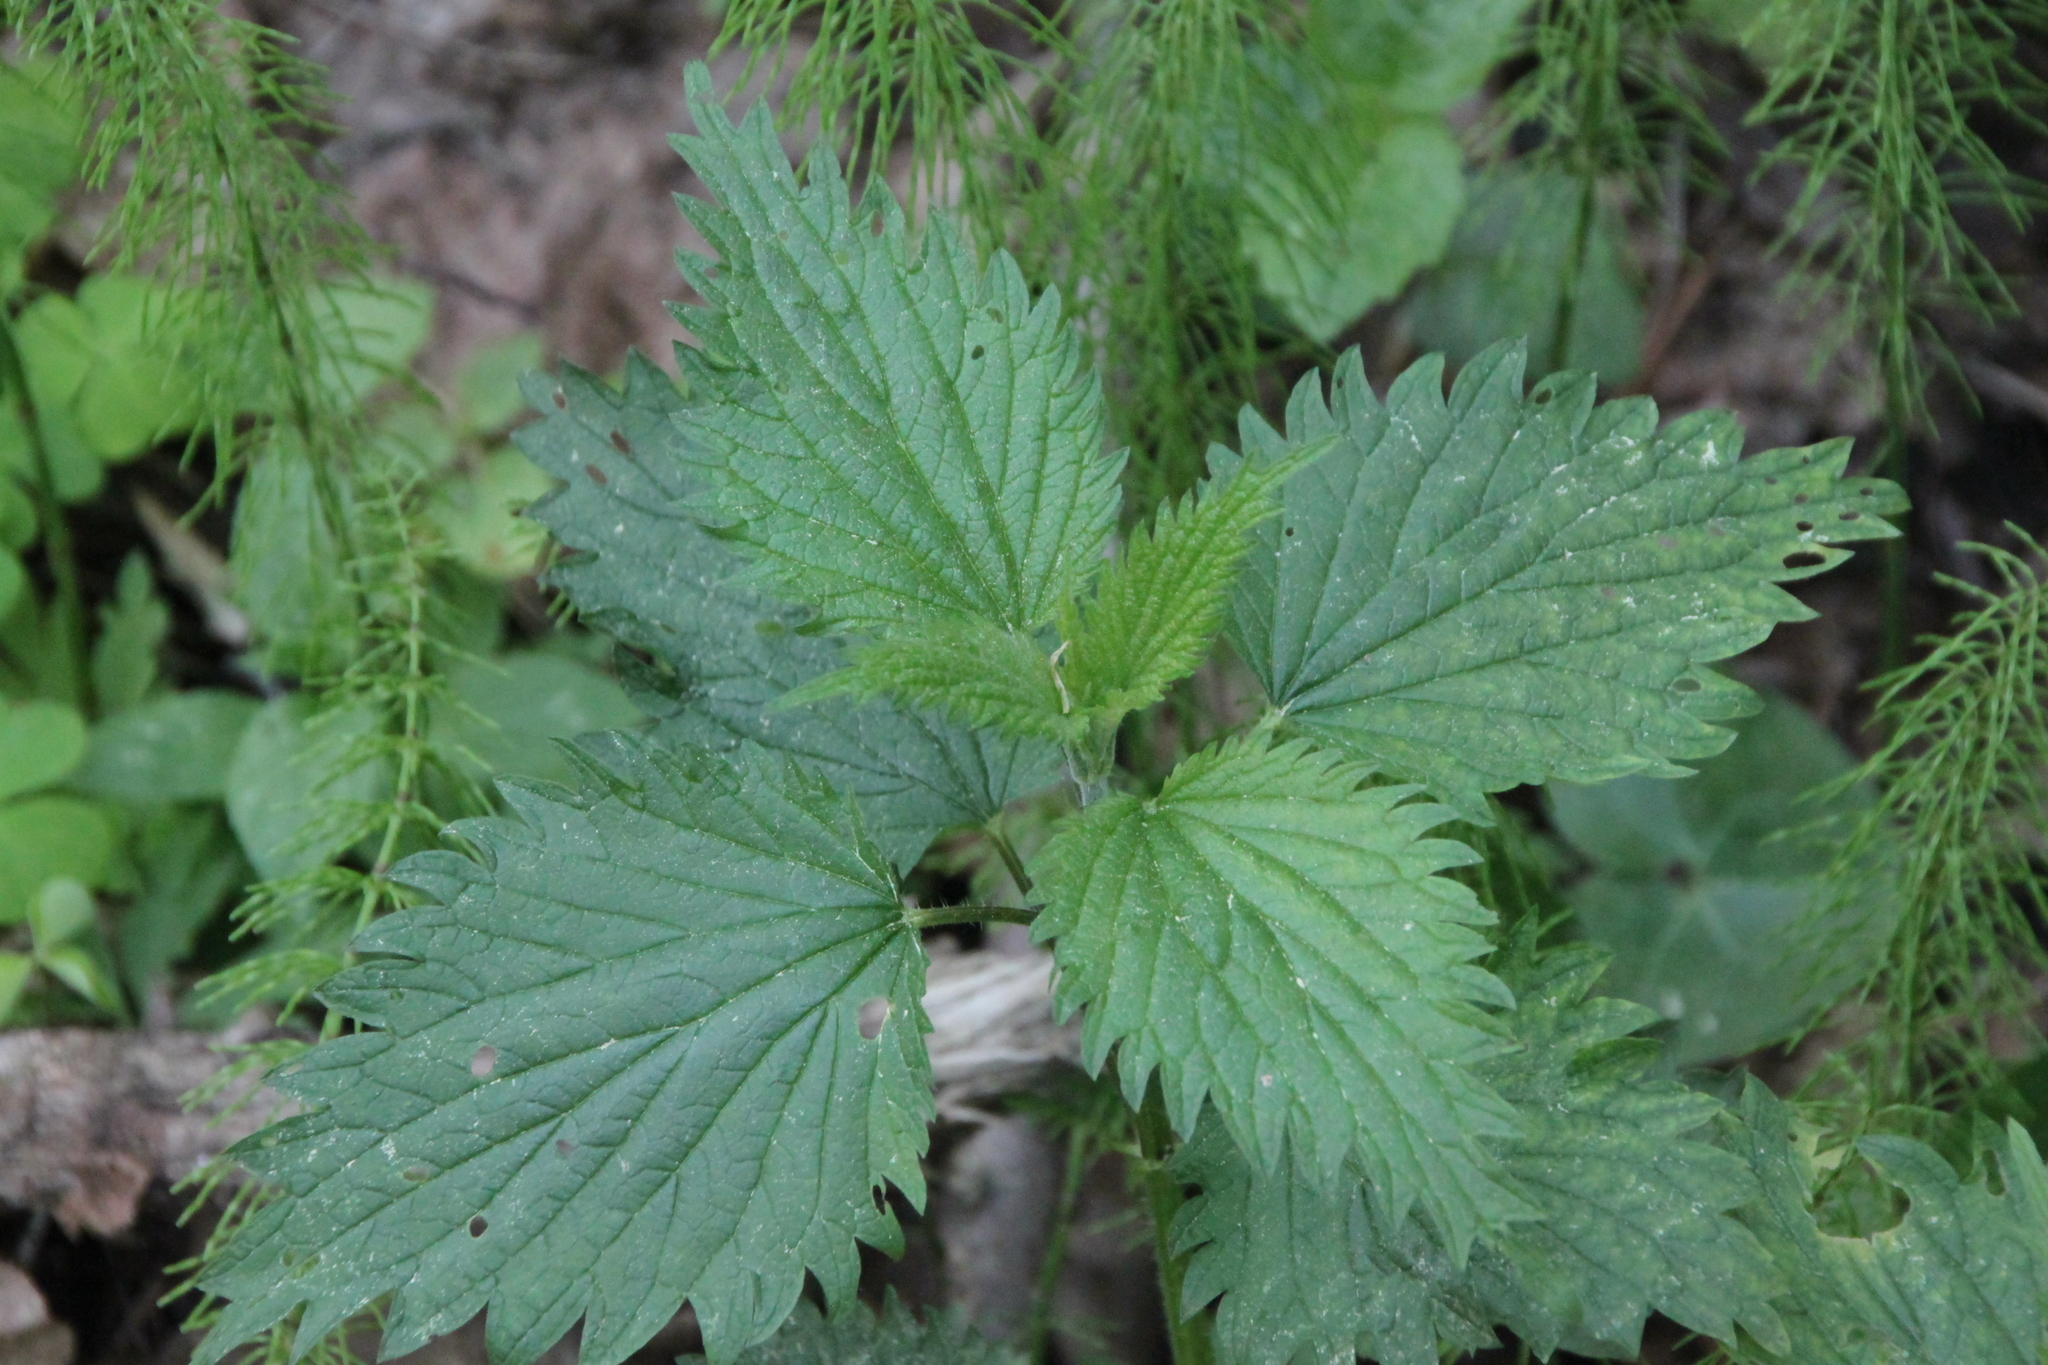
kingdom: Plantae
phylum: Tracheophyta
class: Magnoliopsida
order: Rosales
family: Urticaceae
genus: Urtica
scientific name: Urtica dioica
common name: Common nettle
